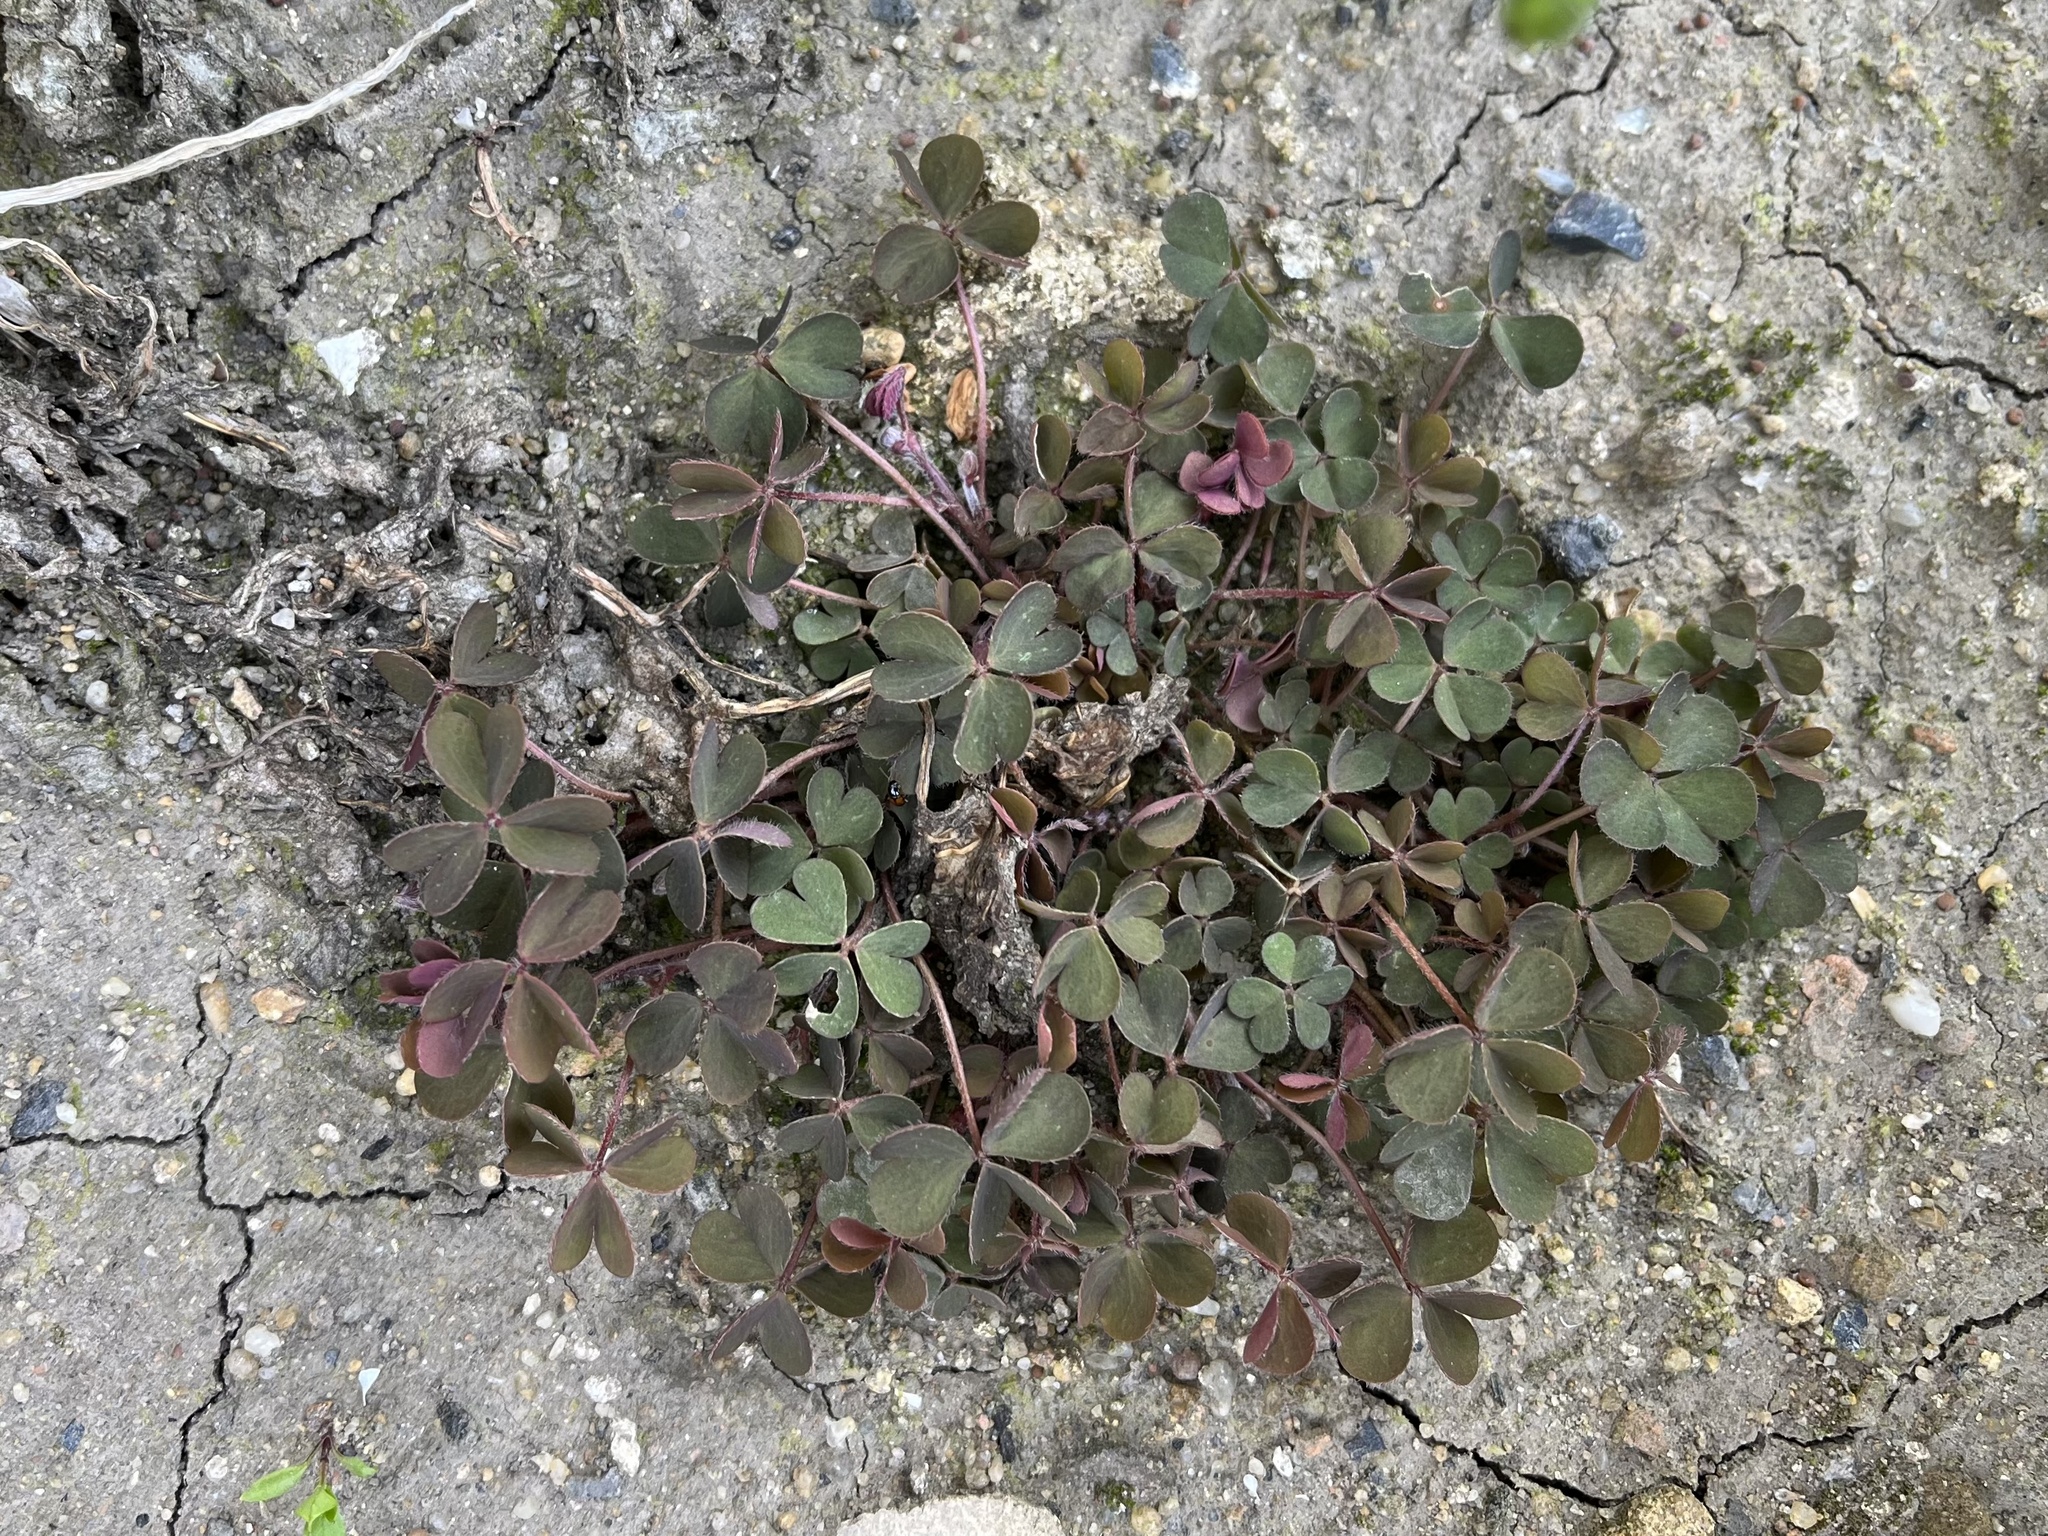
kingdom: Plantae
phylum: Tracheophyta
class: Magnoliopsida
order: Oxalidales
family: Oxalidaceae
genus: Oxalis
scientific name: Oxalis corniculata
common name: Procumbent yellow-sorrel
